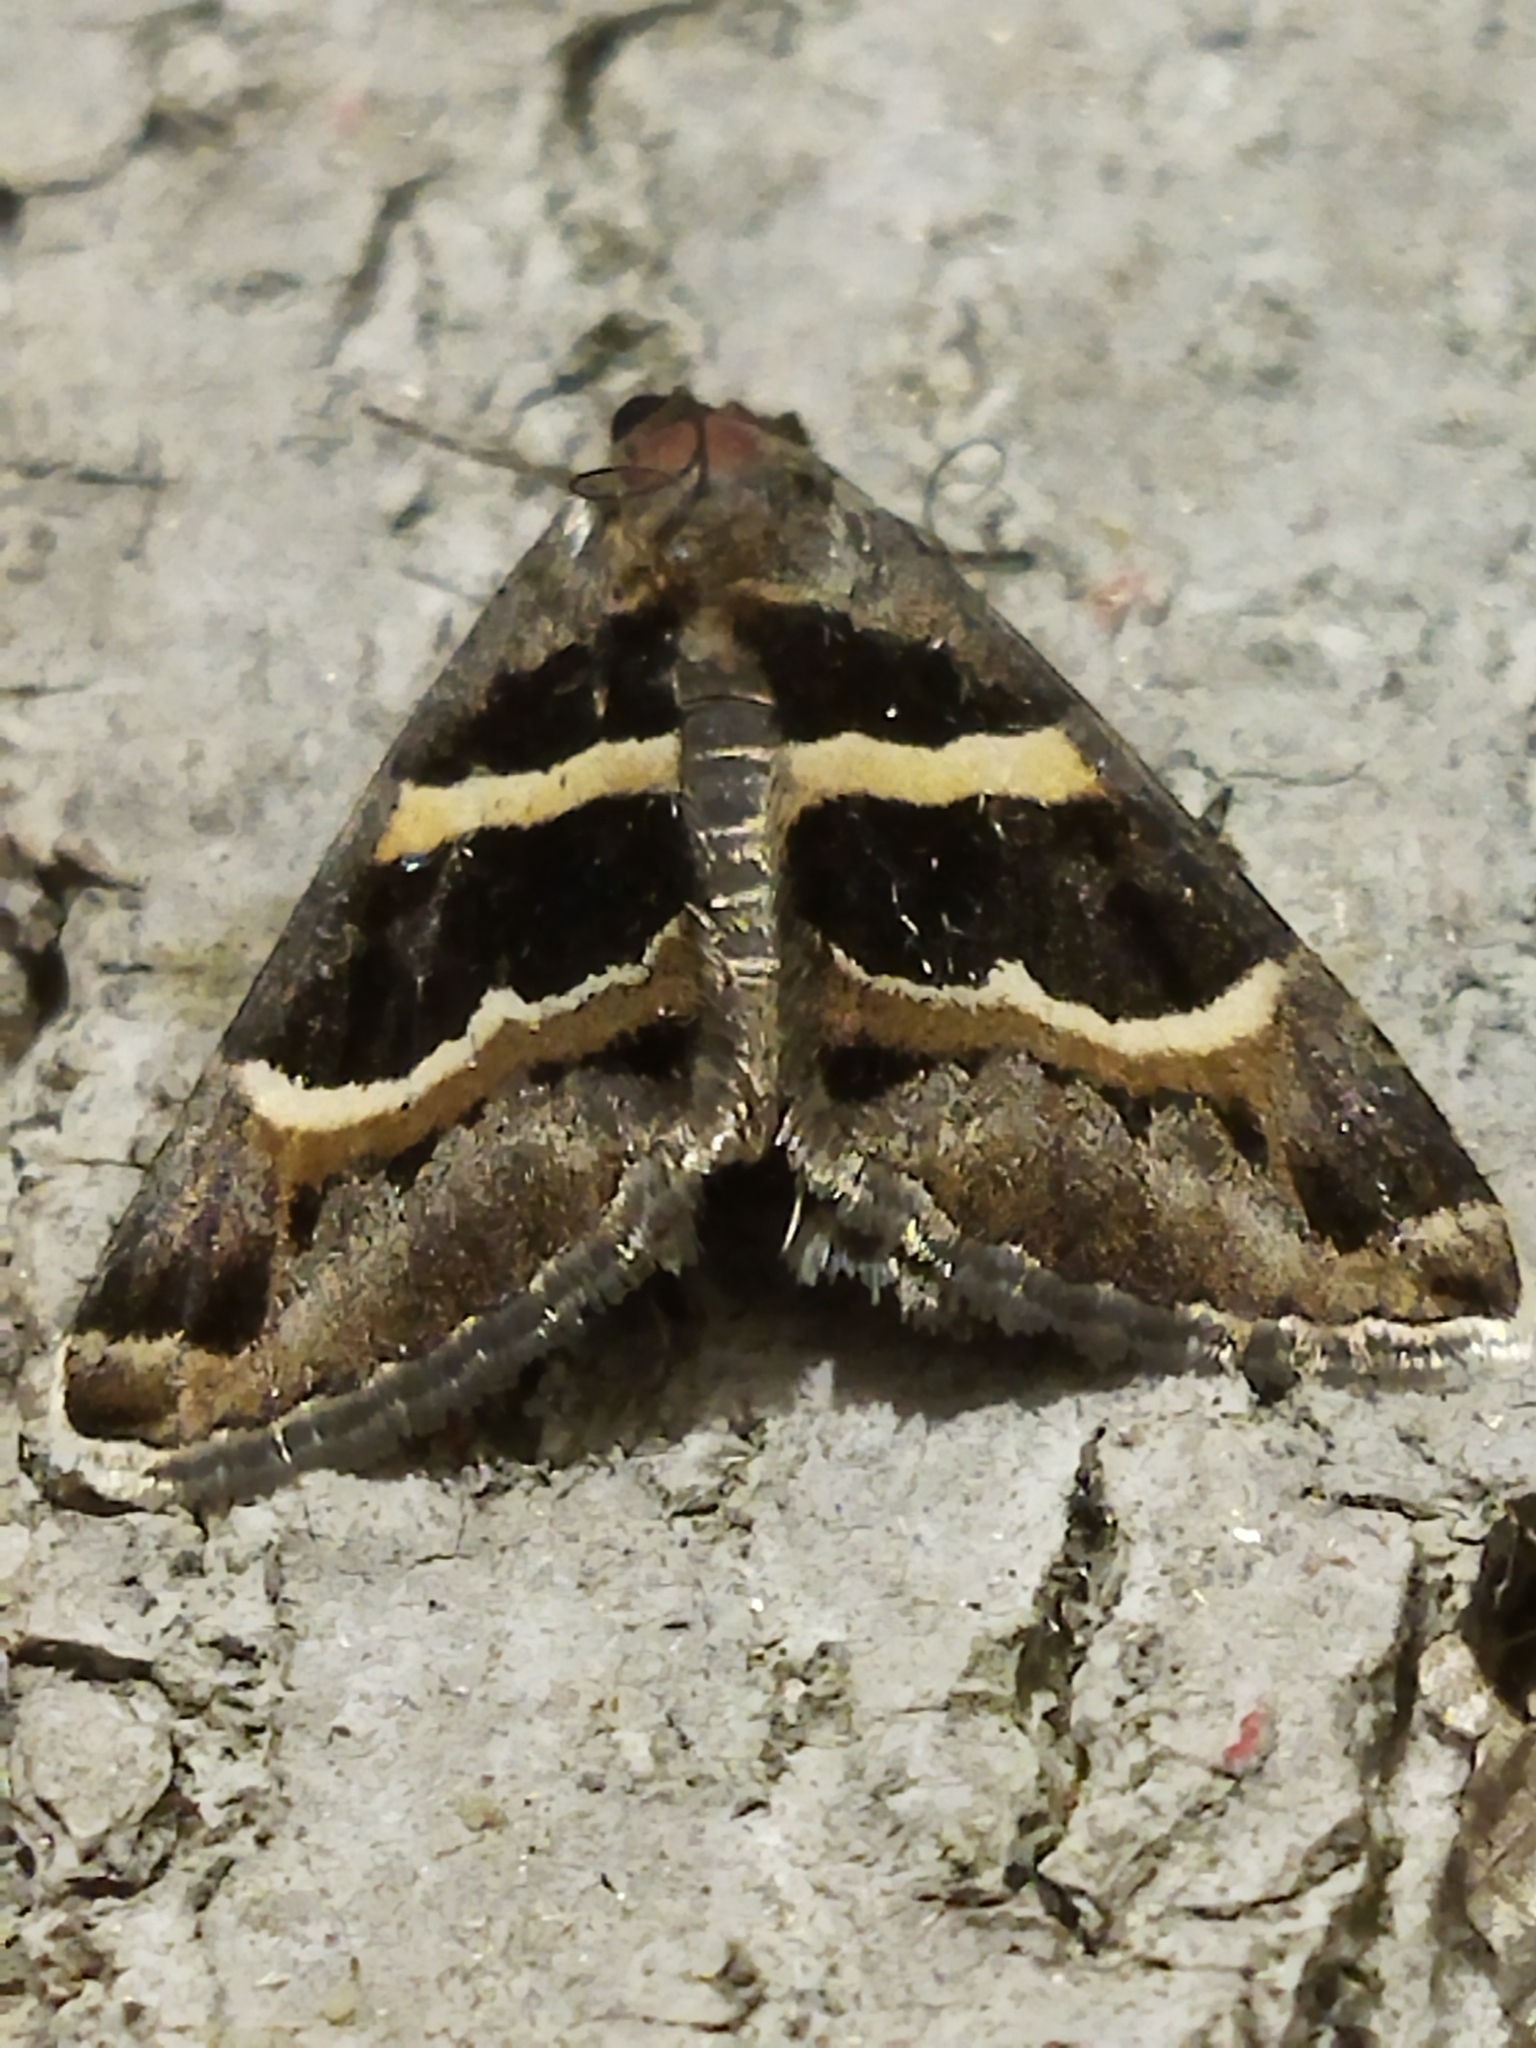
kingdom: Animalia
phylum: Arthropoda
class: Insecta
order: Lepidoptera
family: Erebidae
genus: Grammodes
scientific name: Grammodes stolida
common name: Geometrician
